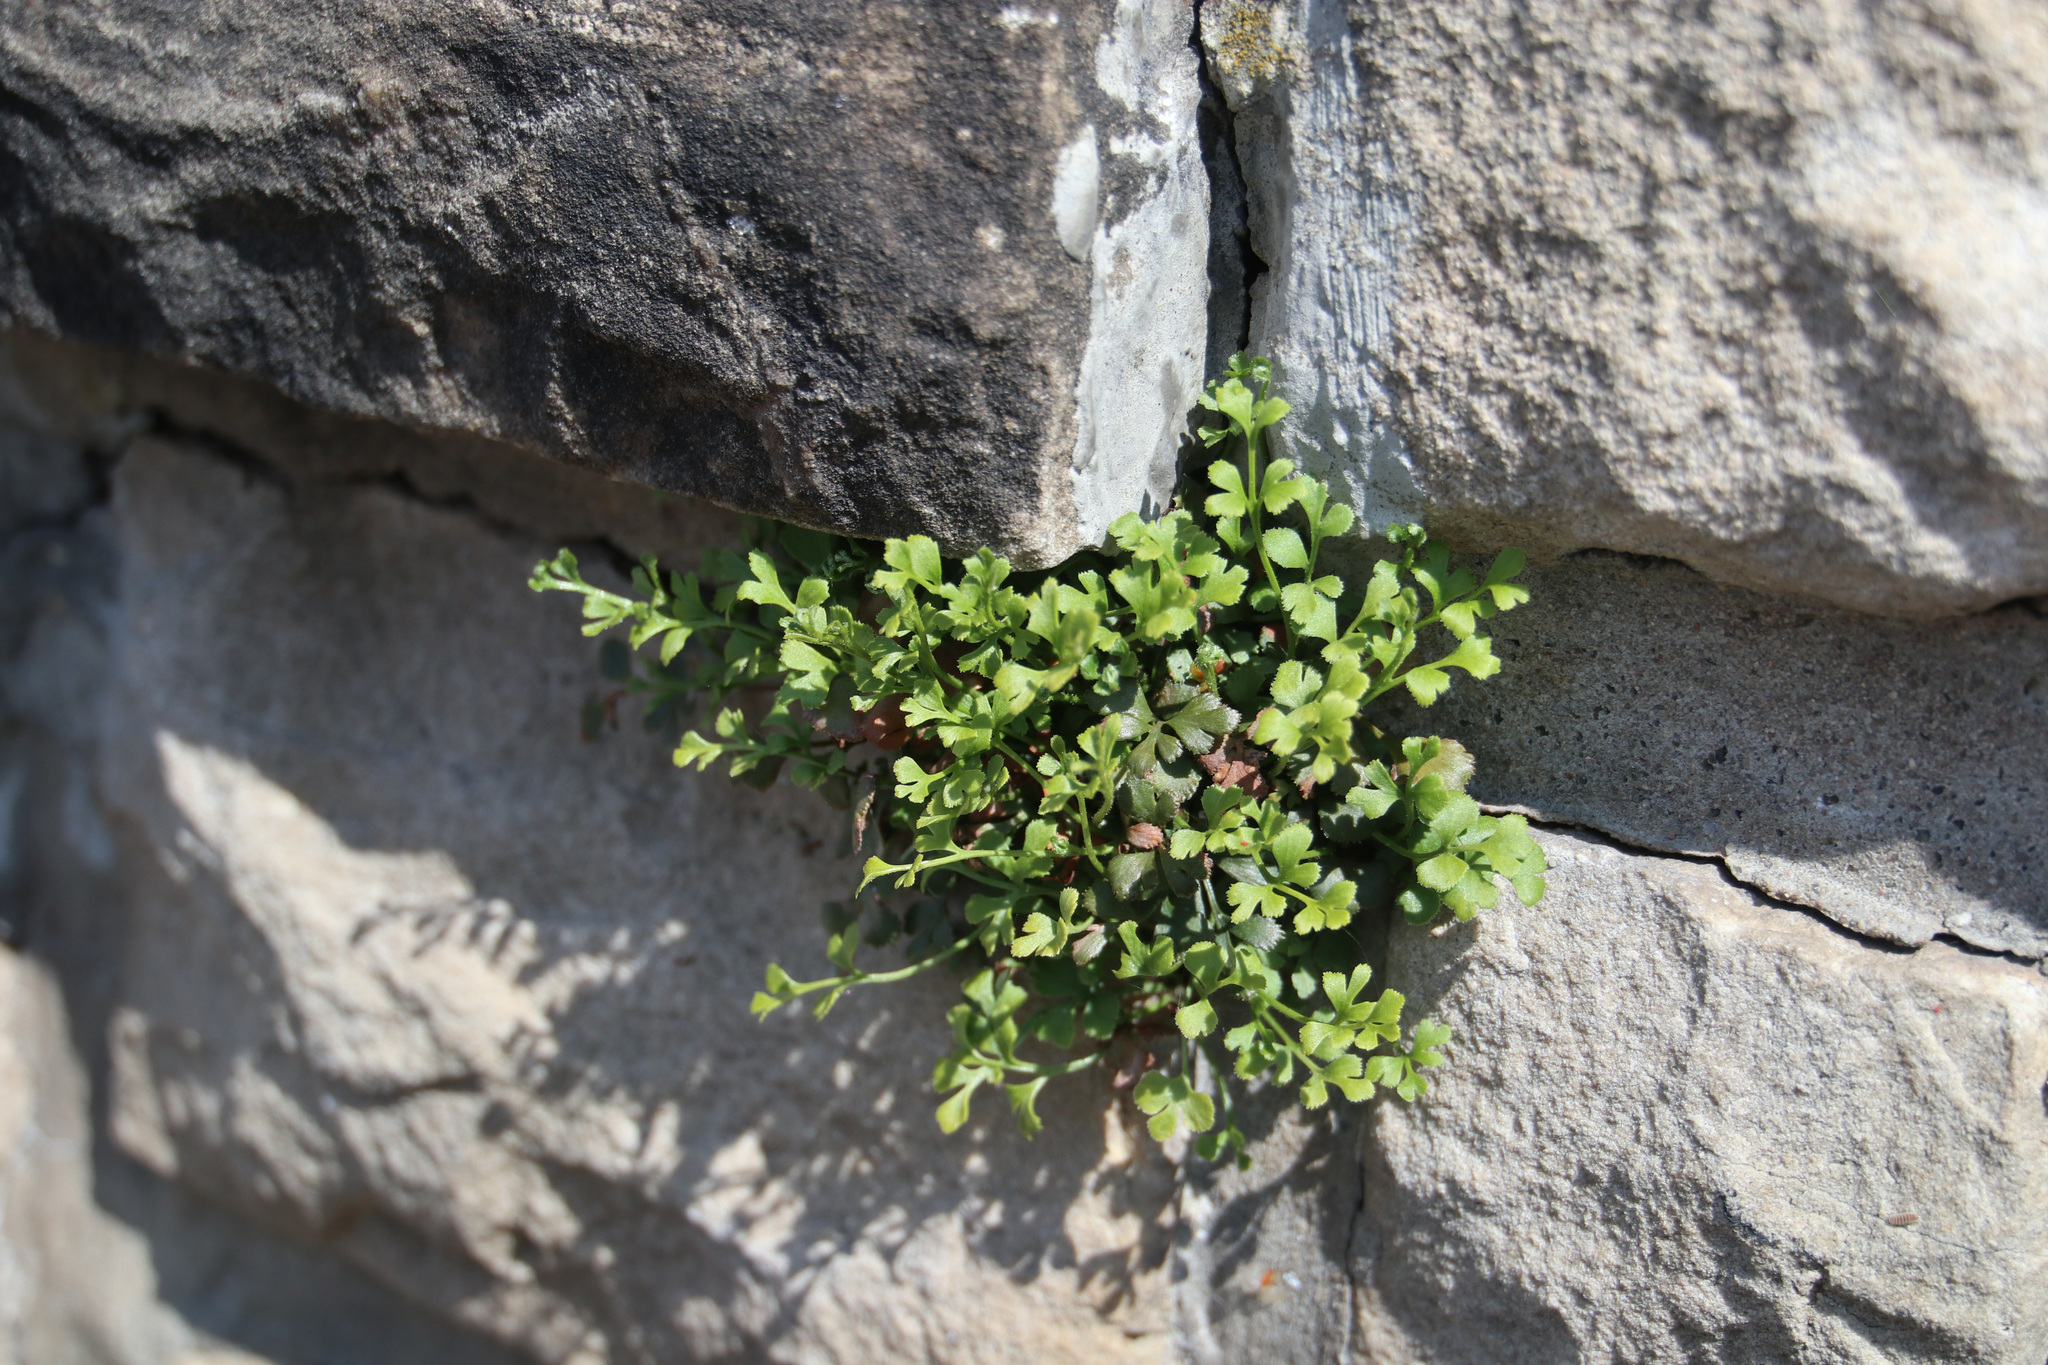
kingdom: Plantae
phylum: Tracheophyta
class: Polypodiopsida
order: Polypodiales
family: Aspleniaceae
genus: Asplenium
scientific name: Asplenium ruta-muraria
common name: Wall-rue
